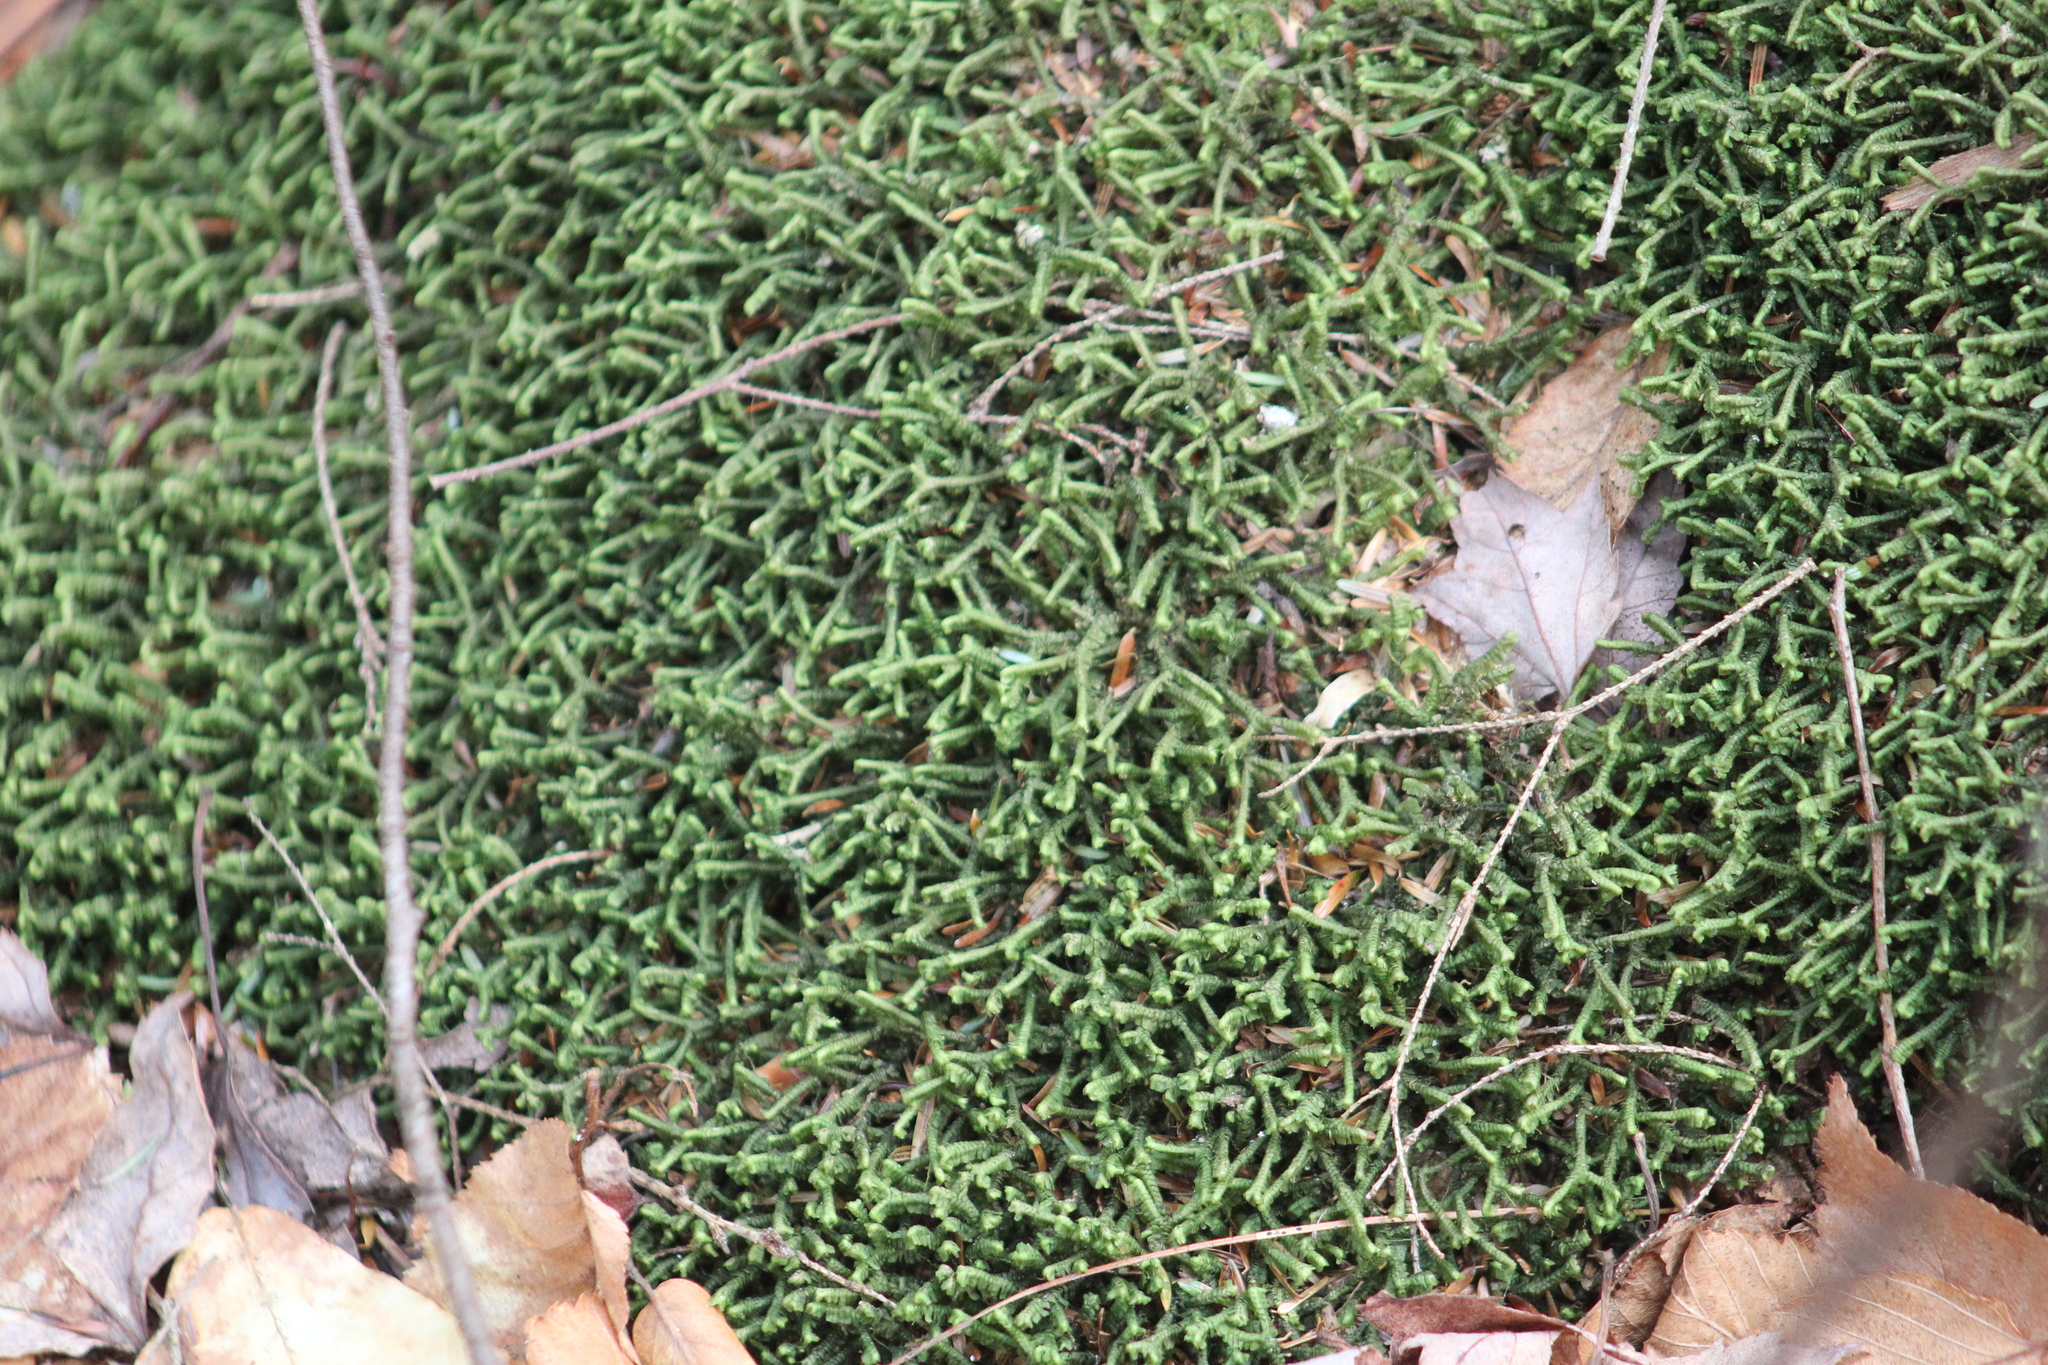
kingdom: Plantae
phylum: Marchantiophyta
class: Jungermanniopsida
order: Jungermanniales
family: Lepidoziaceae
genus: Bazzania
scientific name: Bazzania trilobata
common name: Three-lobed whipwort
